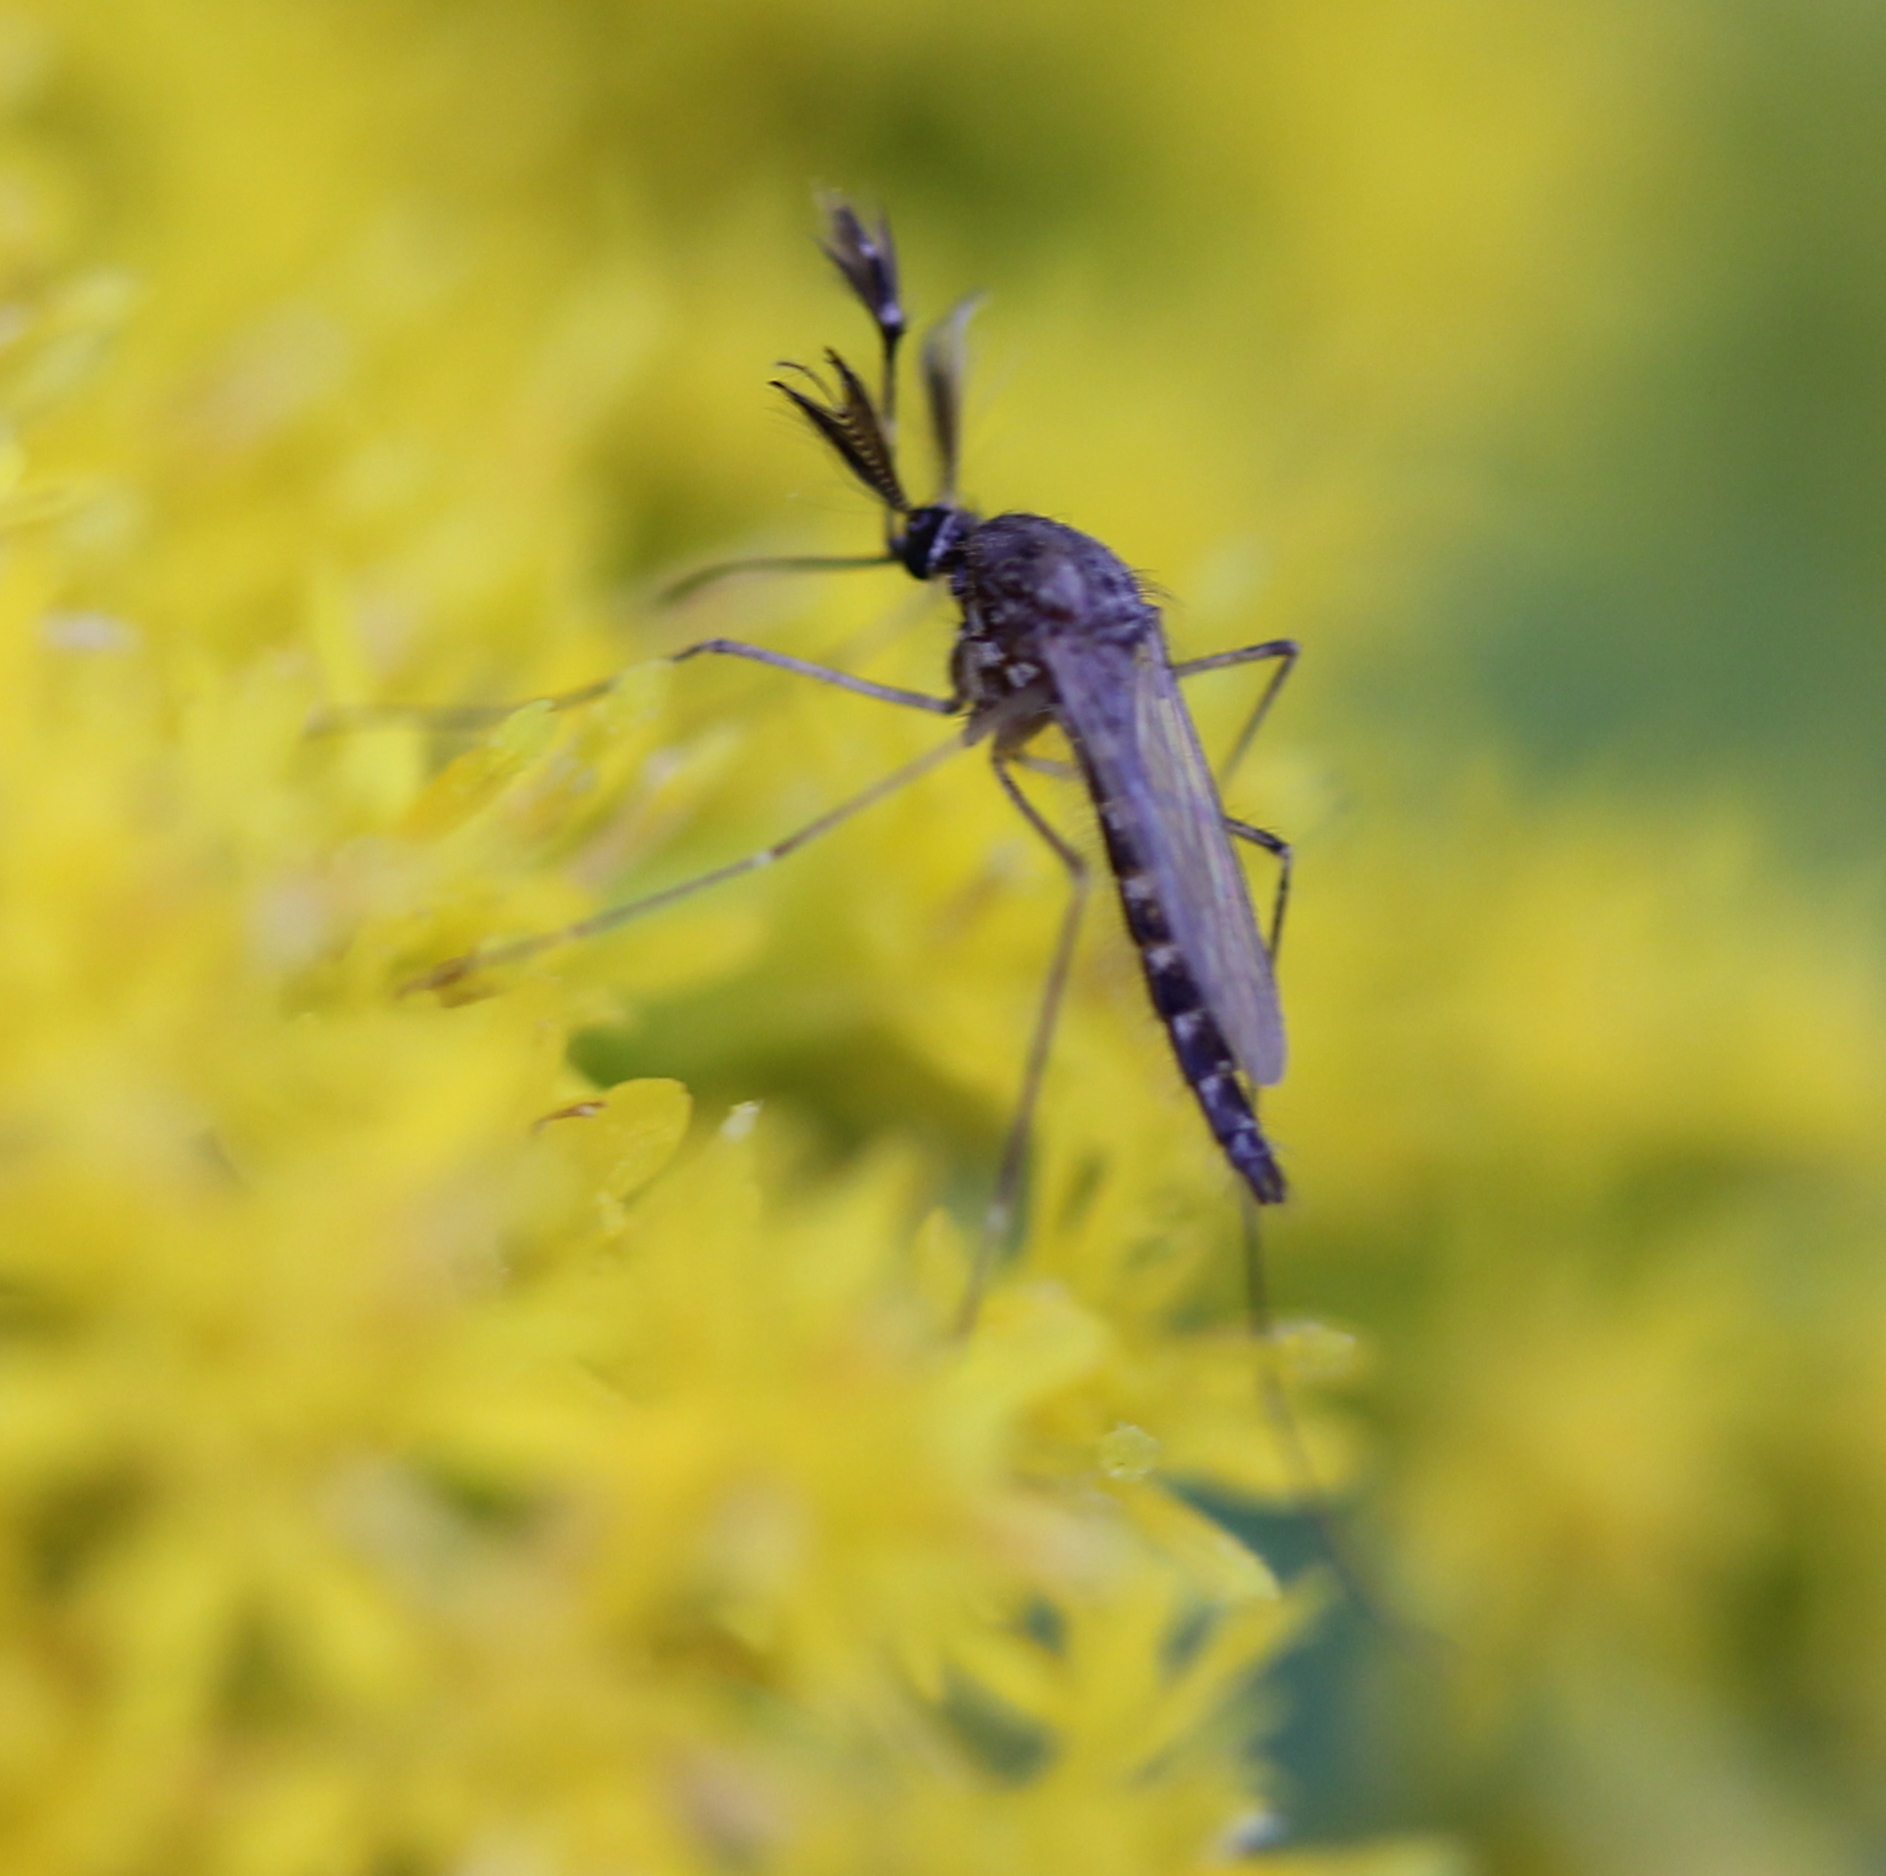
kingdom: Animalia
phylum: Arthropoda
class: Insecta
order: Diptera
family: Culicidae
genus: Aedes
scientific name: Aedes vexans
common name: Inland floodwater mosquito
